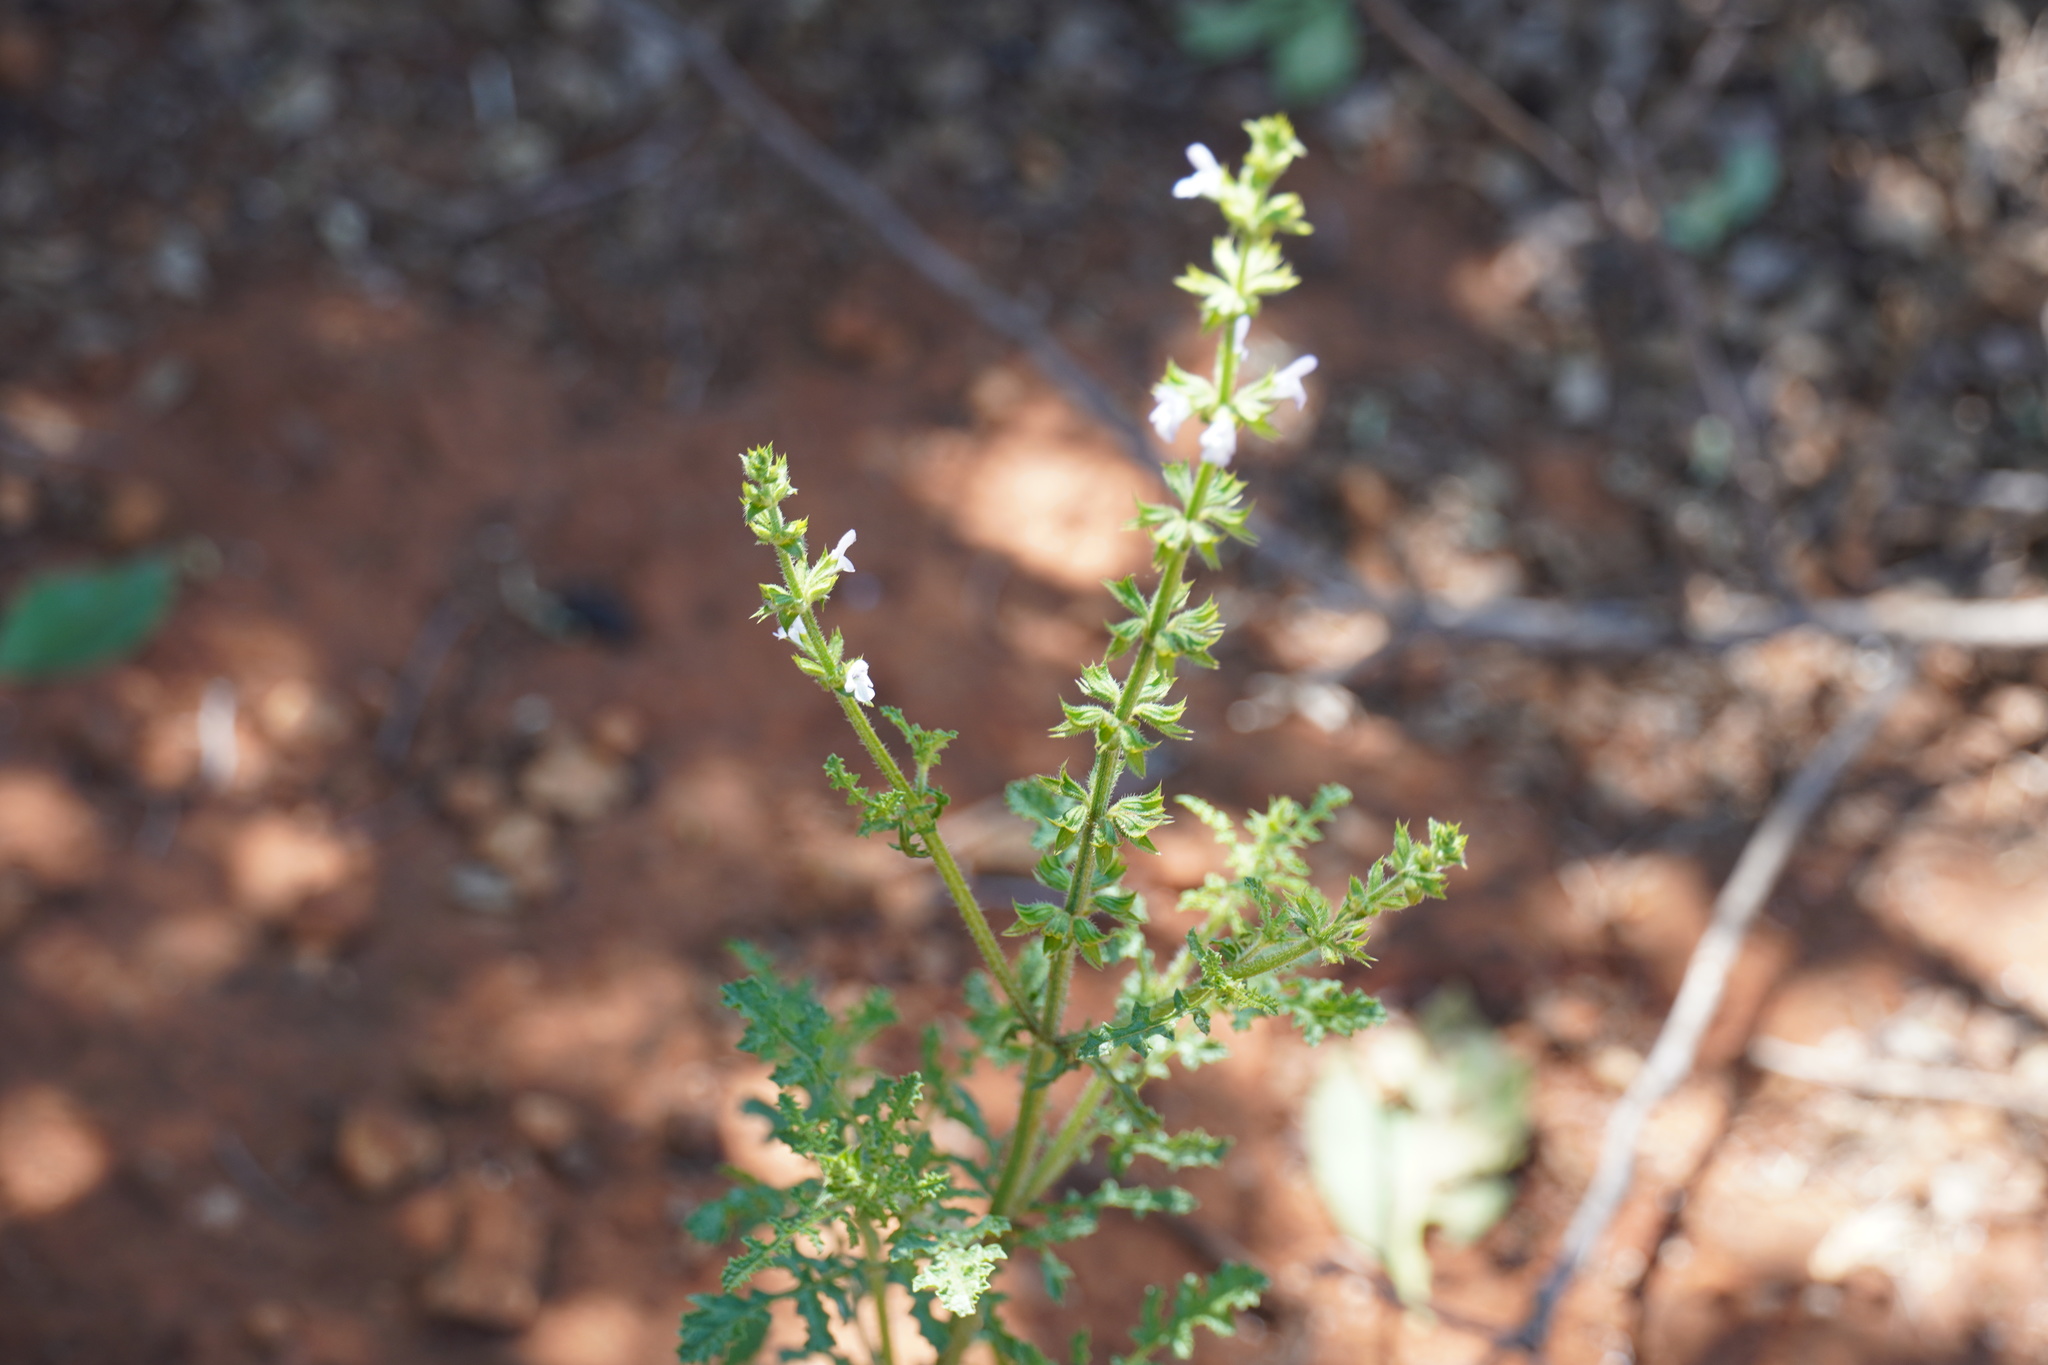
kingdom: Plantae
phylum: Tracheophyta
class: Magnoliopsida
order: Lamiales
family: Lamiaceae
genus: Salvia
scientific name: Salvia runcinata
